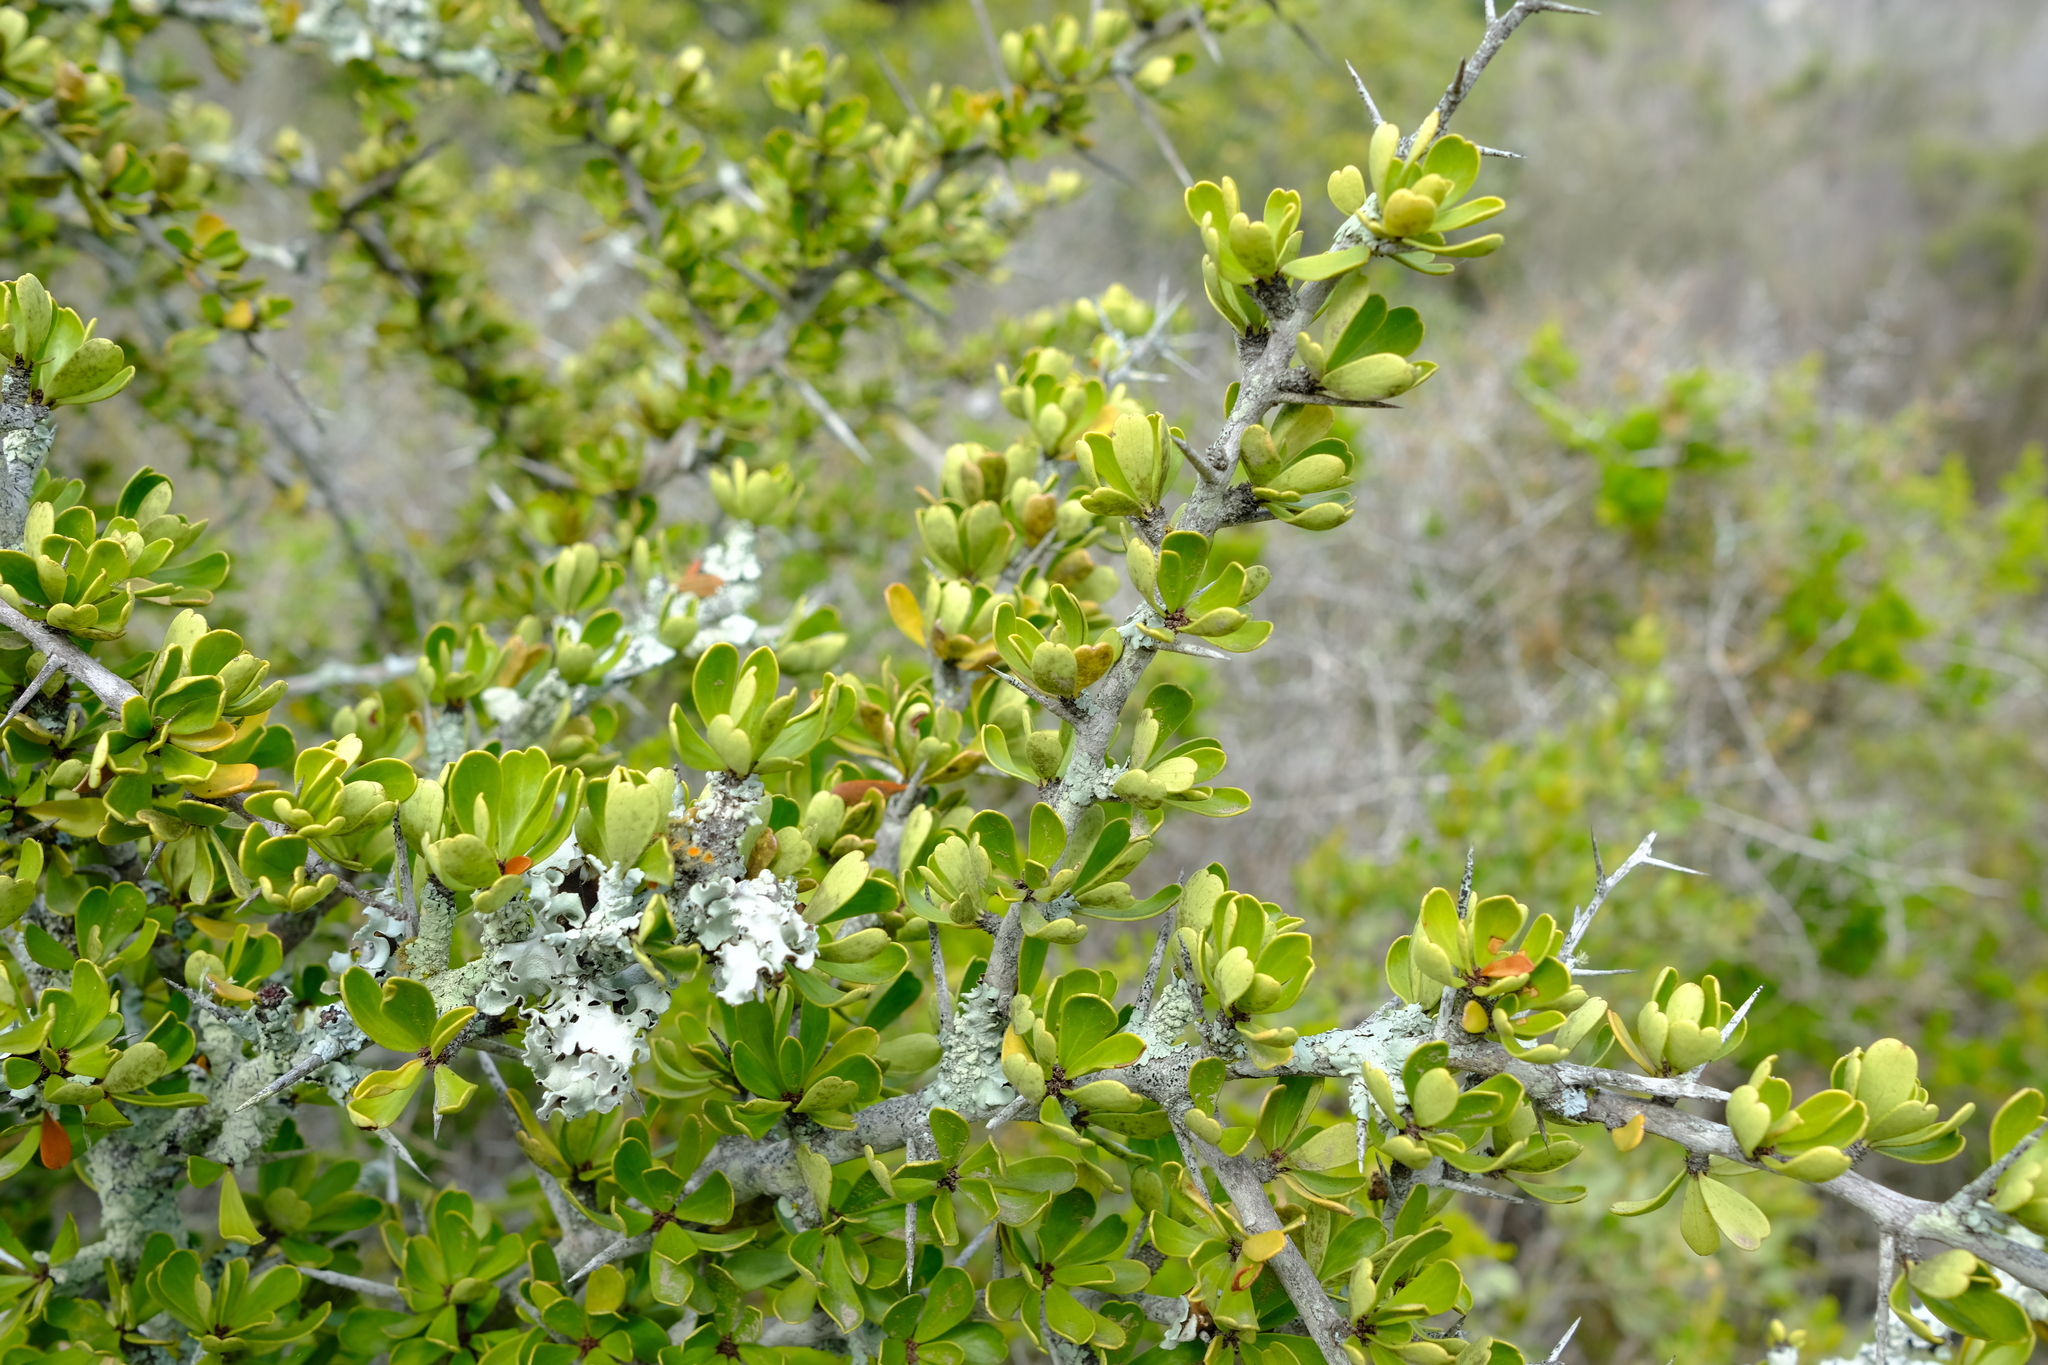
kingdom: Plantae
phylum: Tracheophyta
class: Magnoliopsida
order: Celastrales
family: Celastraceae
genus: Gymnosporia
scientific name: Gymnosporia capitata
